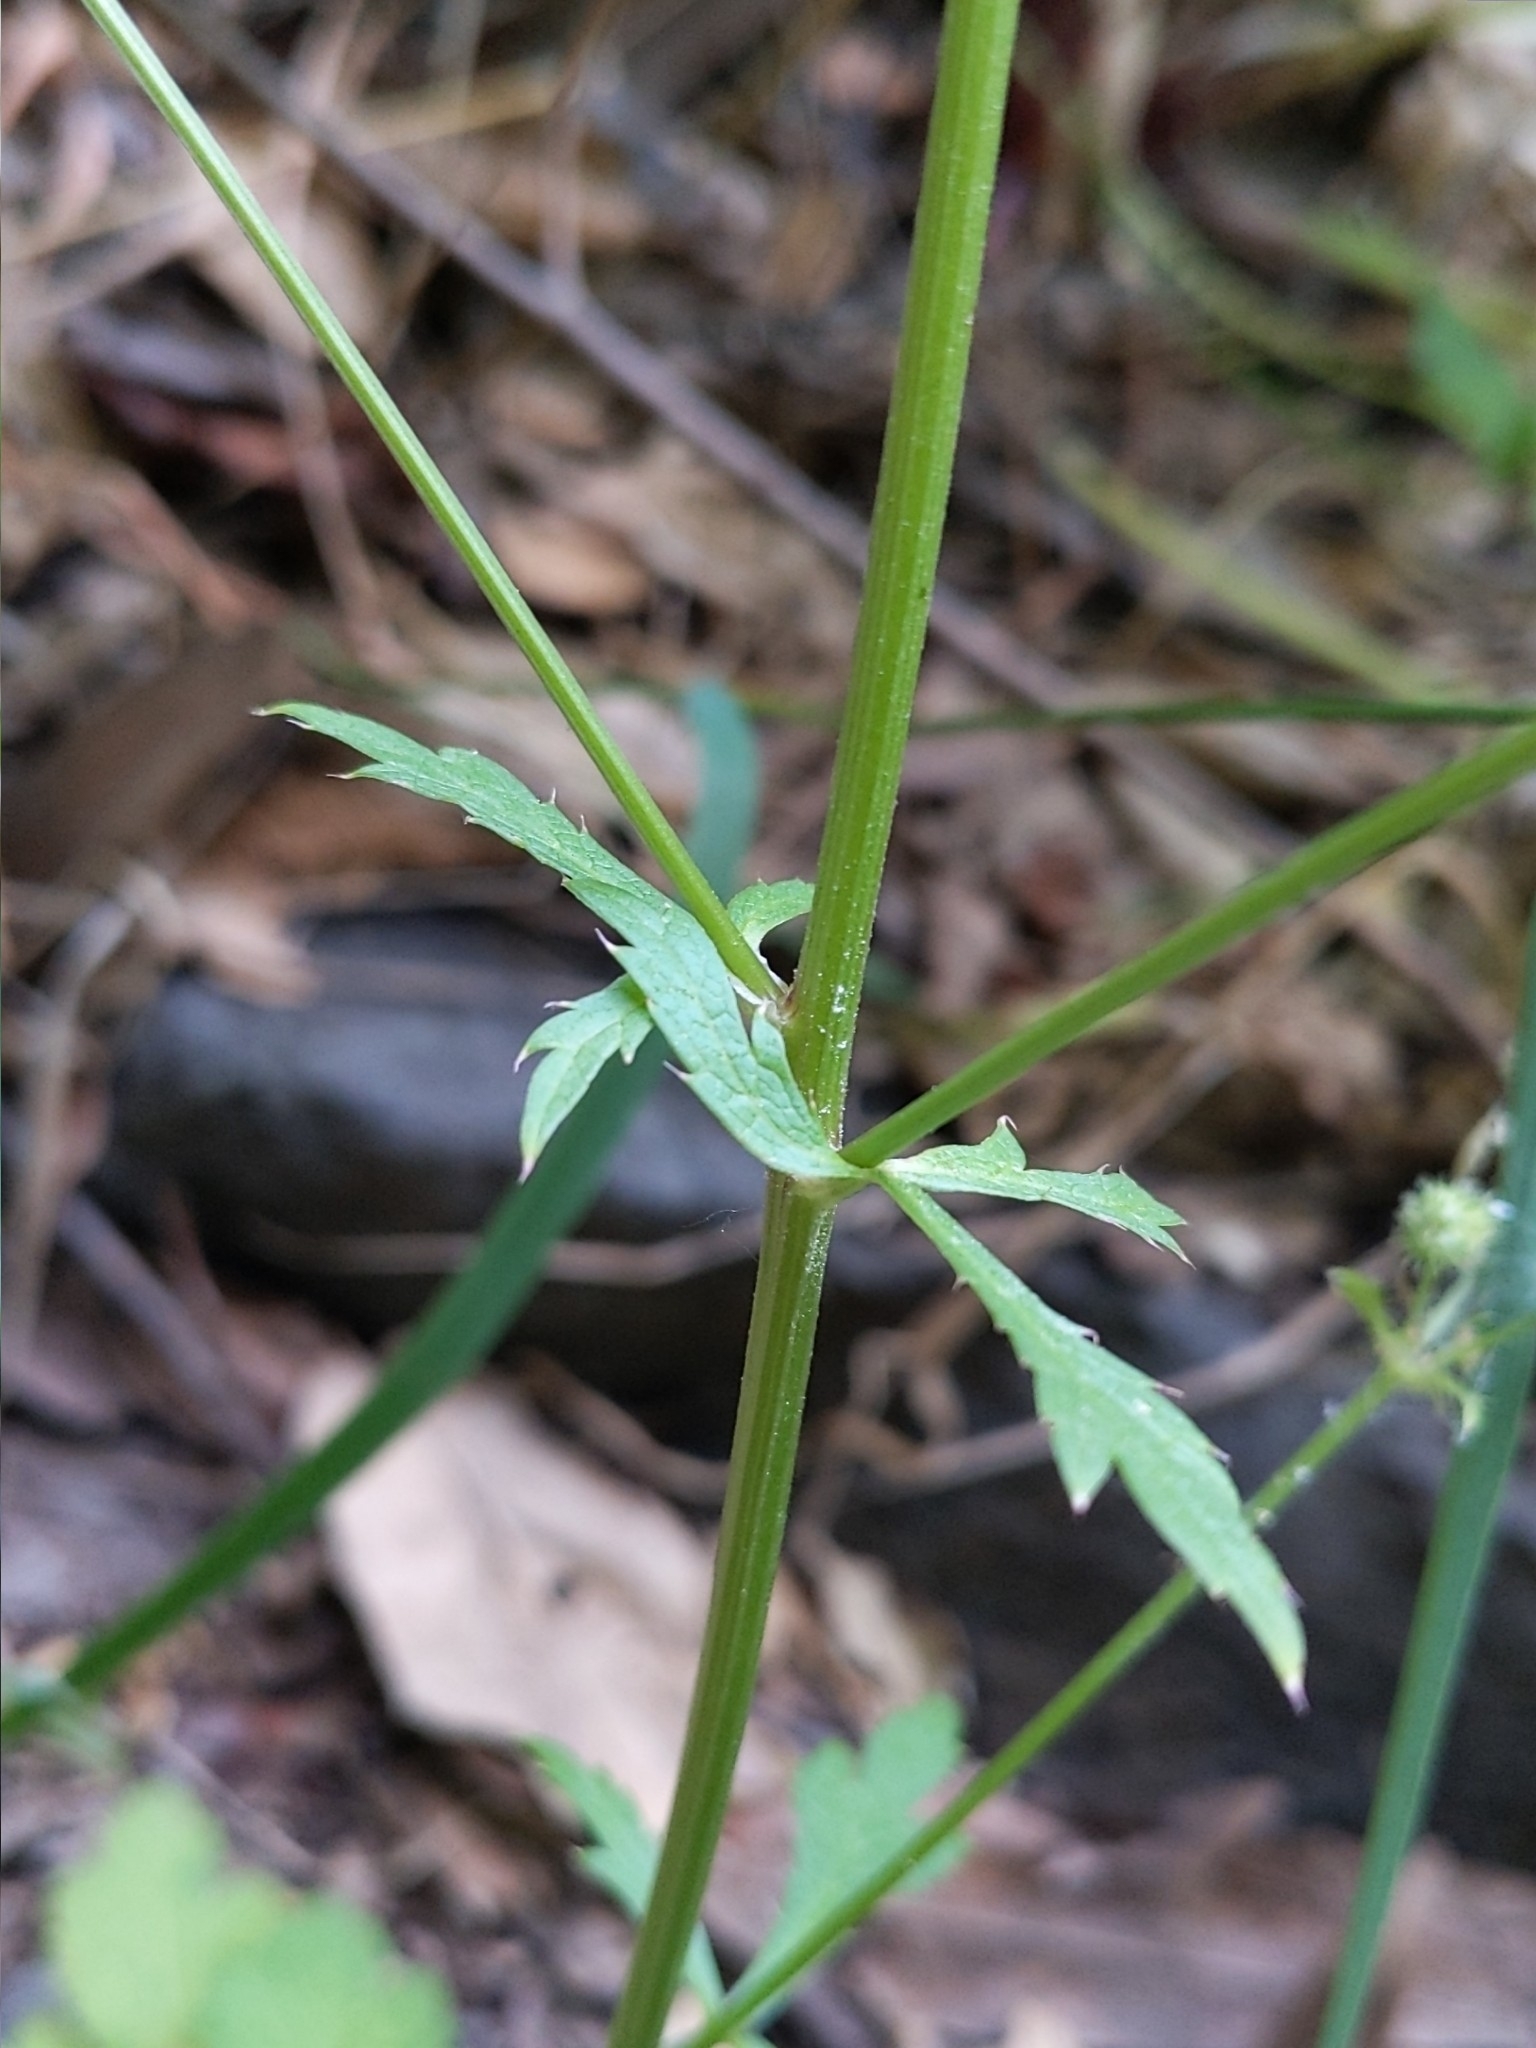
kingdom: Plantae
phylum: Tracheophyta
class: Magnoliopsida
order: Apiales
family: Apiaceae
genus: Sanicula
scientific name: Sanicula crassicaulis
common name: Western snakeroot
